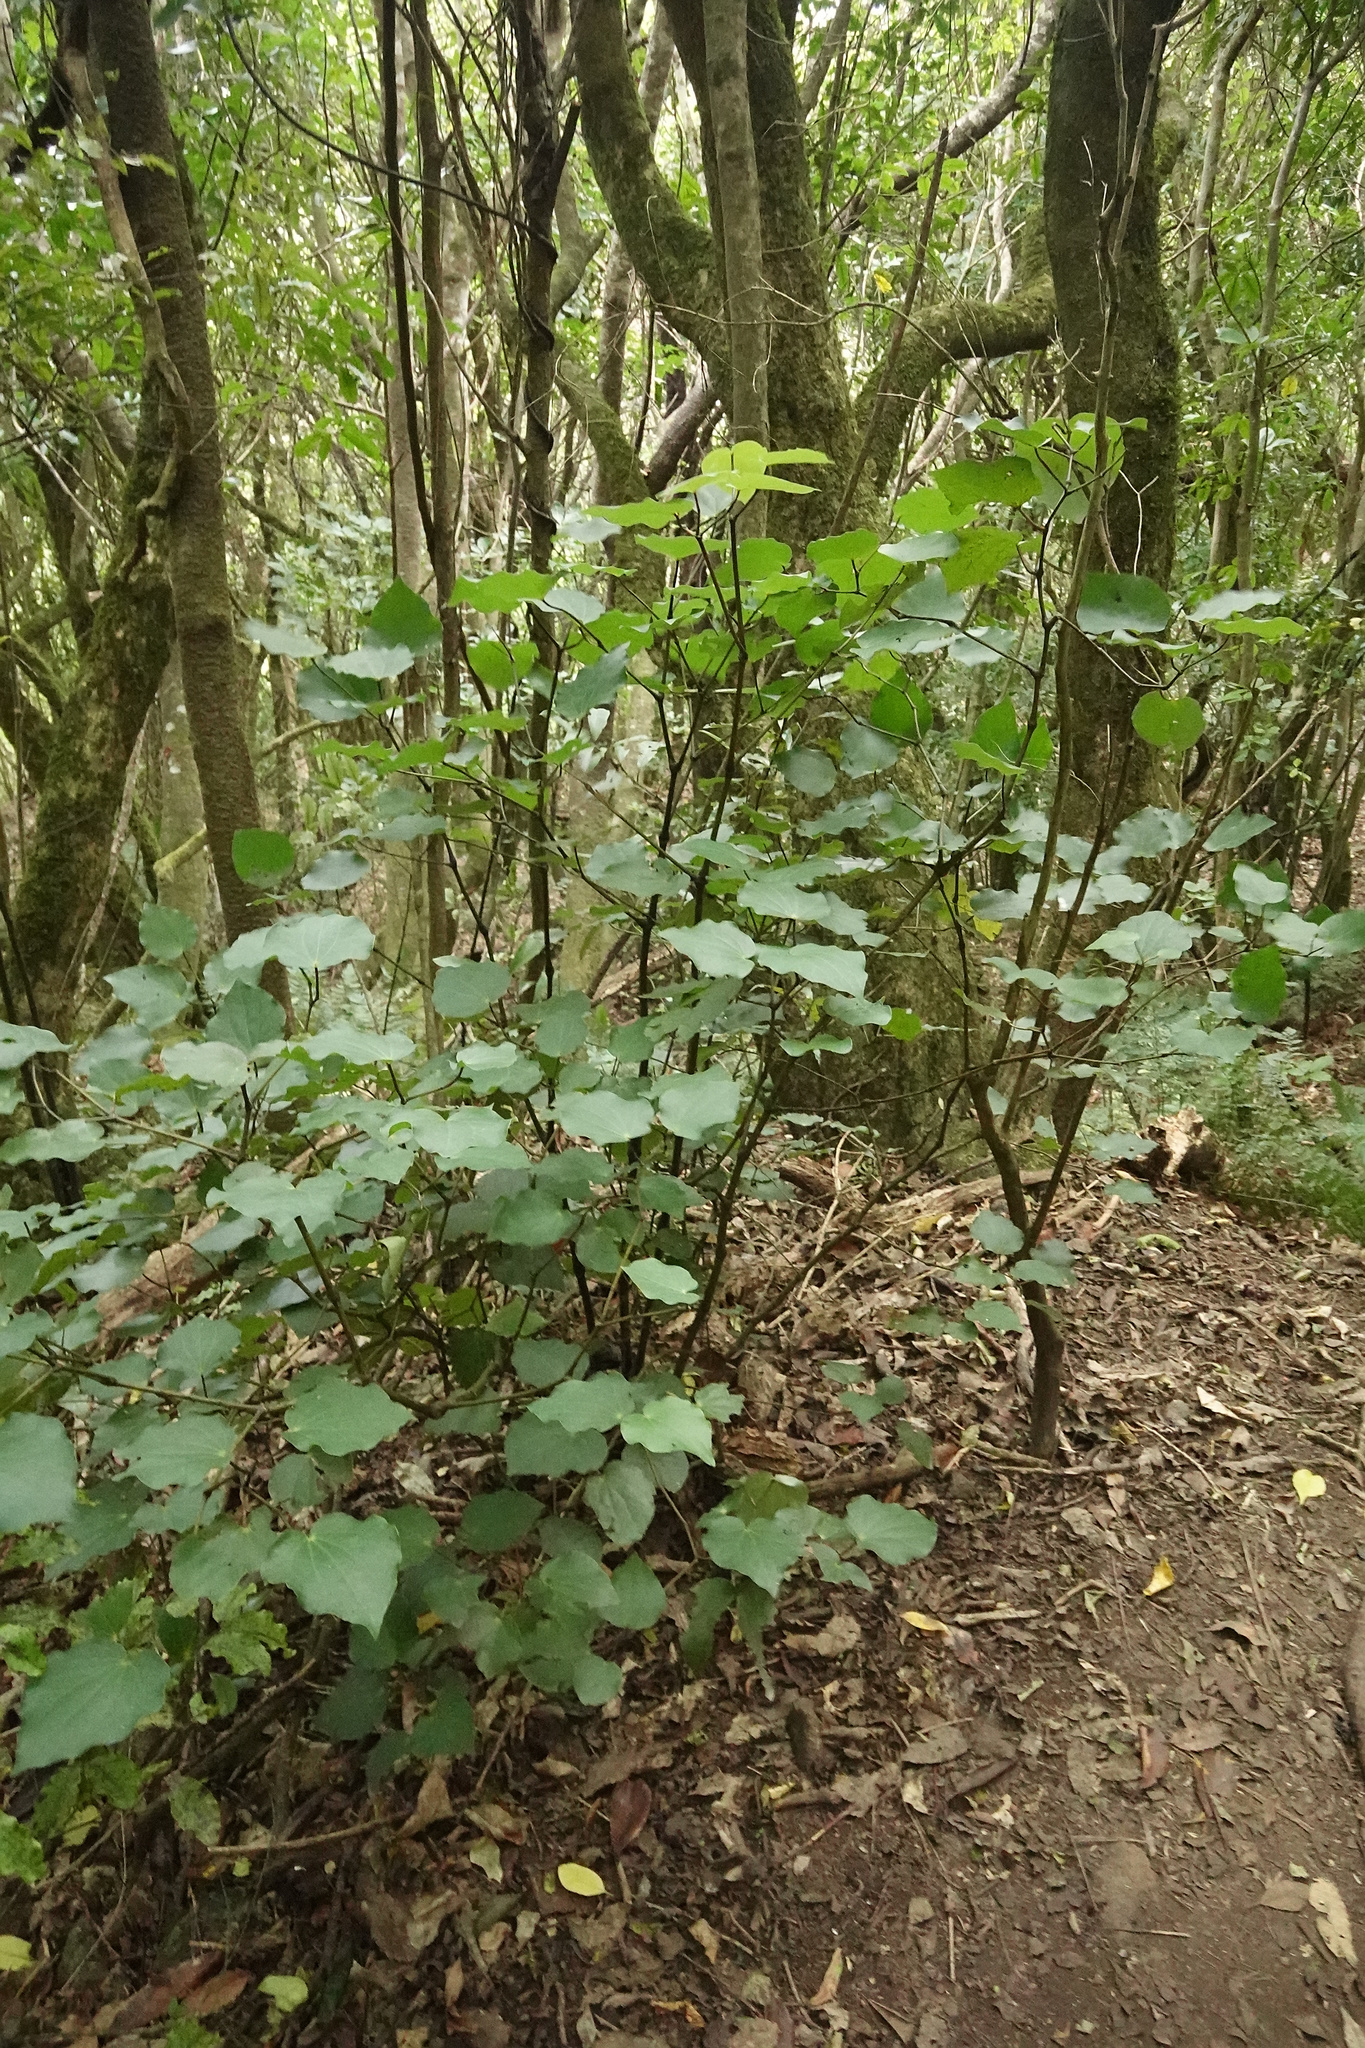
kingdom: Plantae
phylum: Tracheophyta
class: Magnoliopsida
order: Piperales
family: Piperaceae
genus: Macropiper
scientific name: Macropiper excelsum
